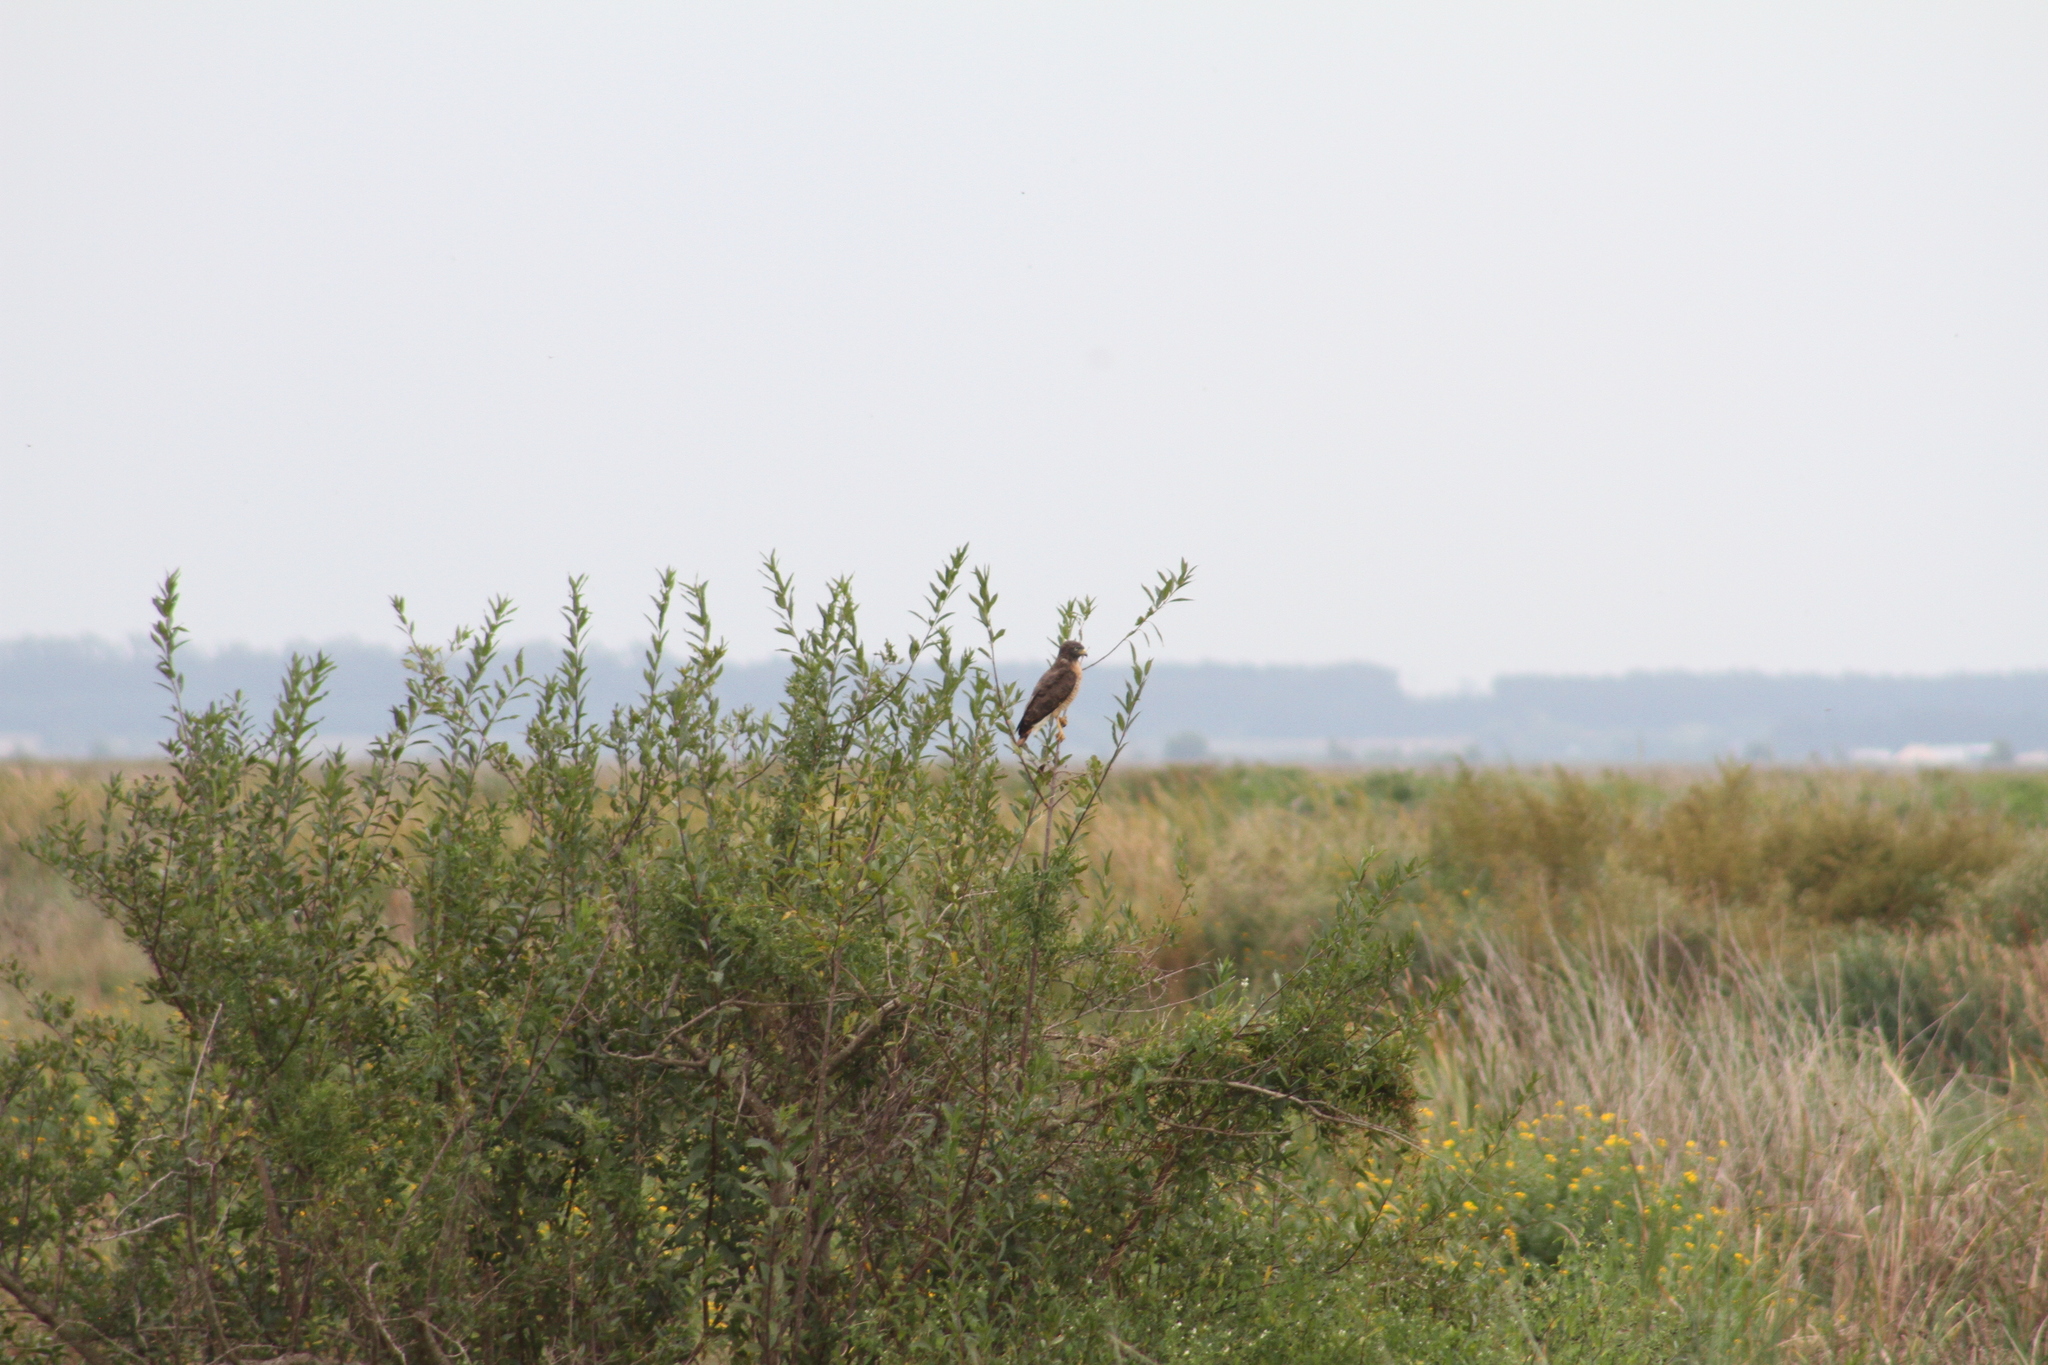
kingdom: Animalia
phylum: Chordata
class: Aves
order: Accipitriformes
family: Accipitridae
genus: Rupornis
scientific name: Rupornis magnirostris
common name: Roadside hawk
